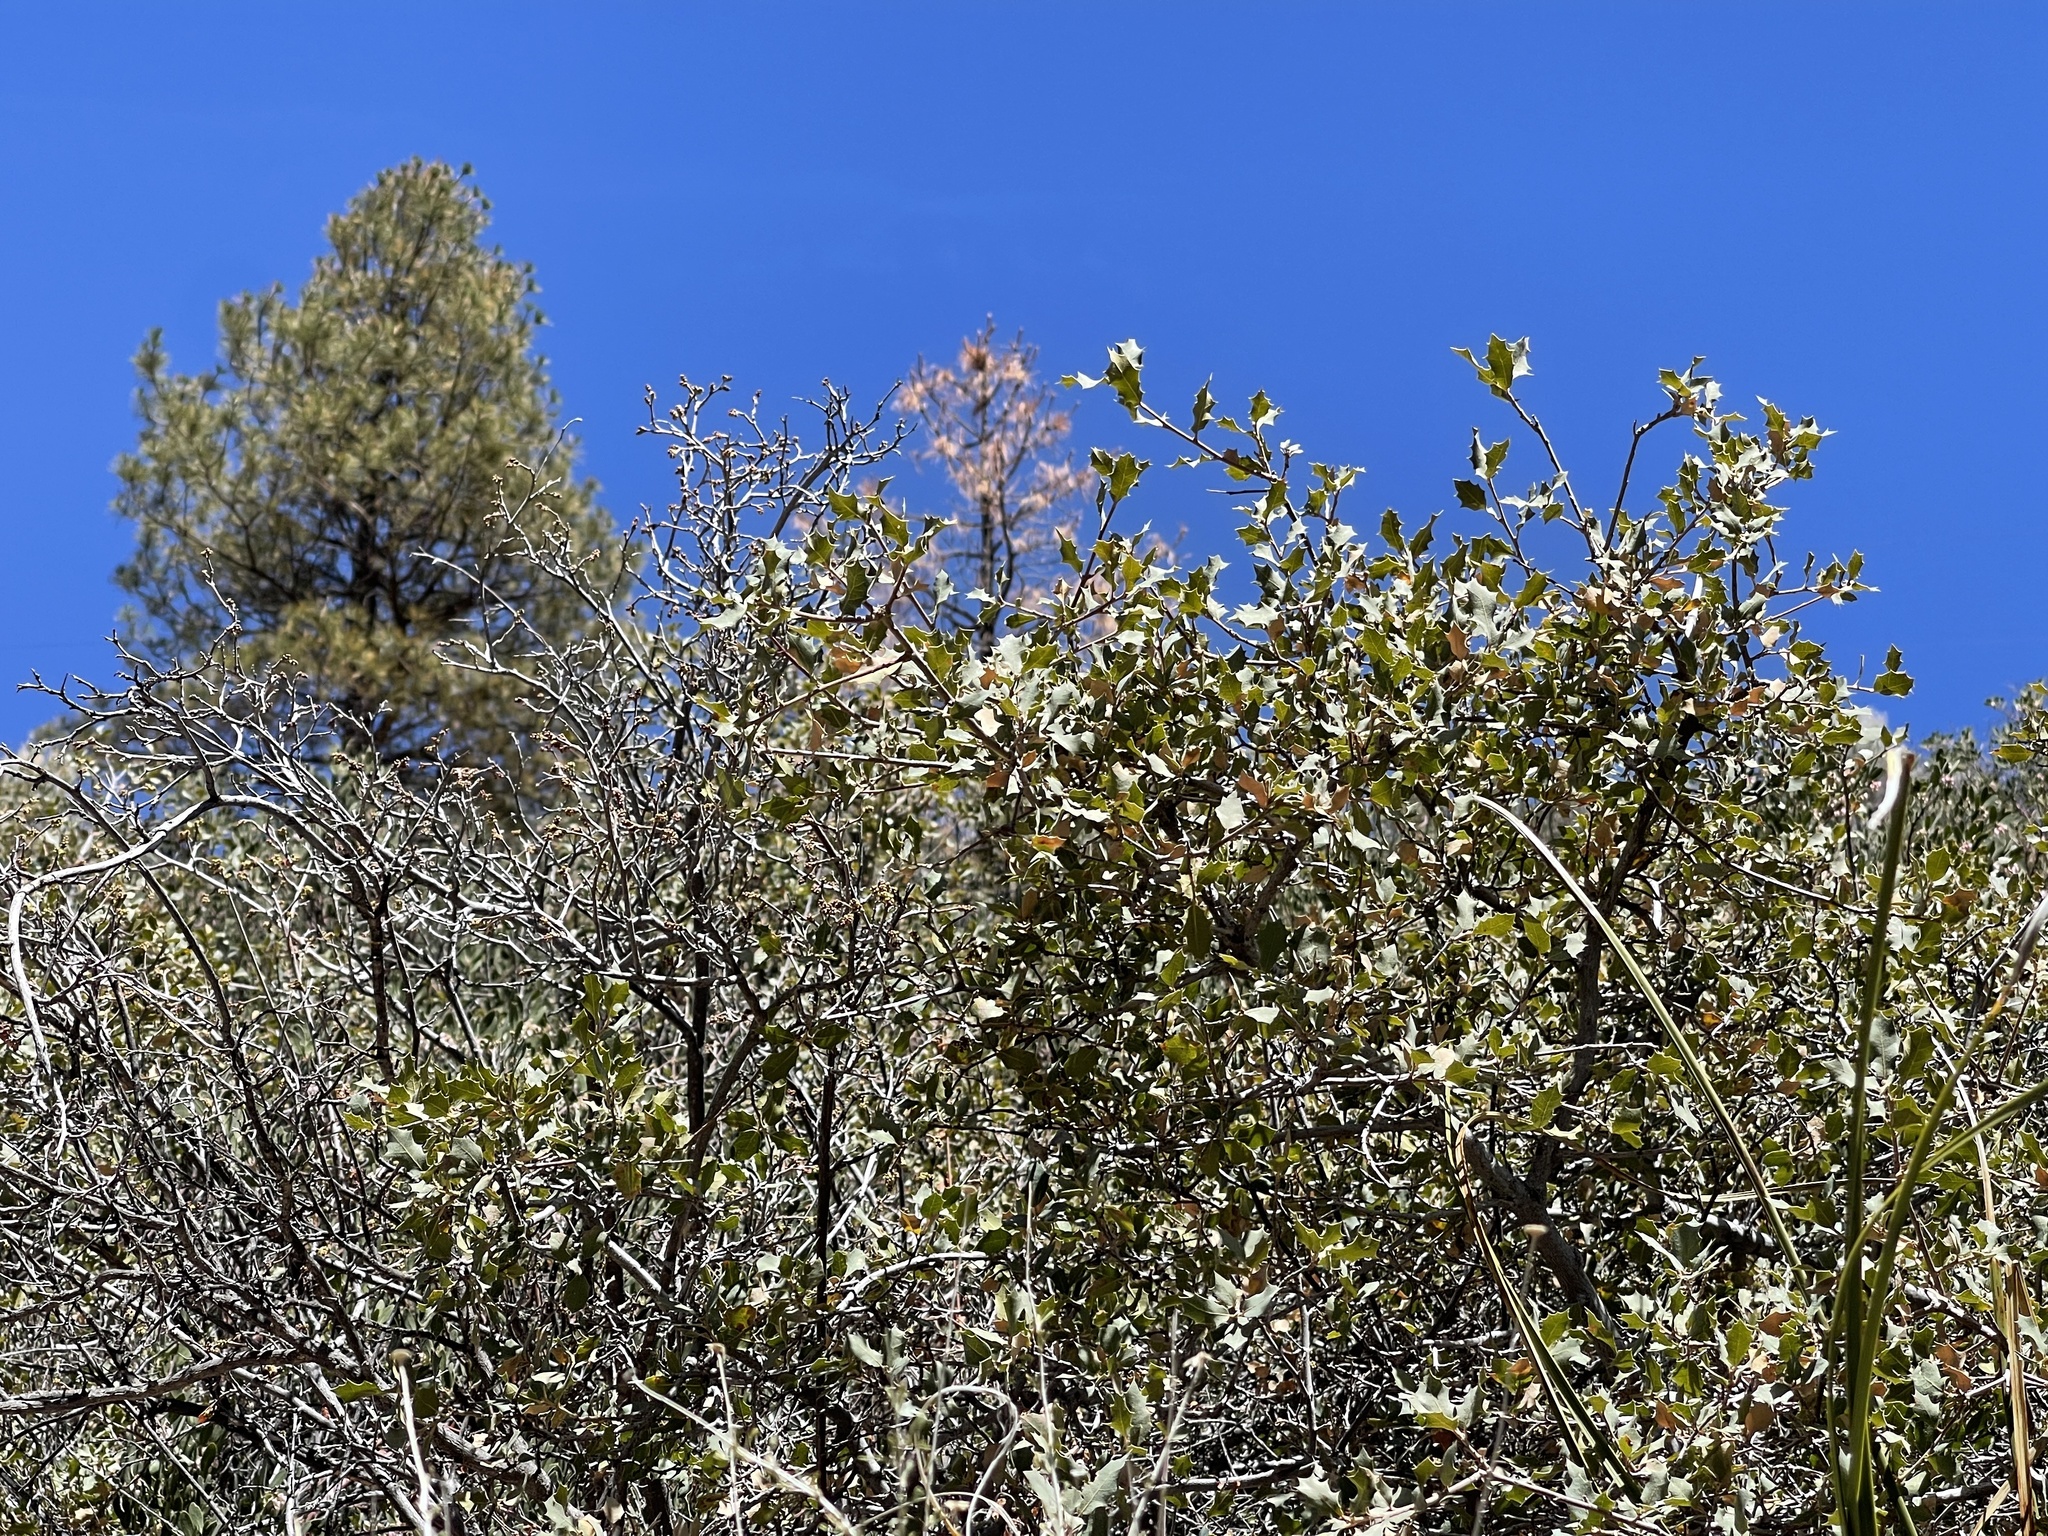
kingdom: Plantae
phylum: Tracheophyta
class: Magnoliopsida
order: Fagales
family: Fagaceae
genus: Quercus
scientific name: Quercus turbinella
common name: Sonoran scrub oak
